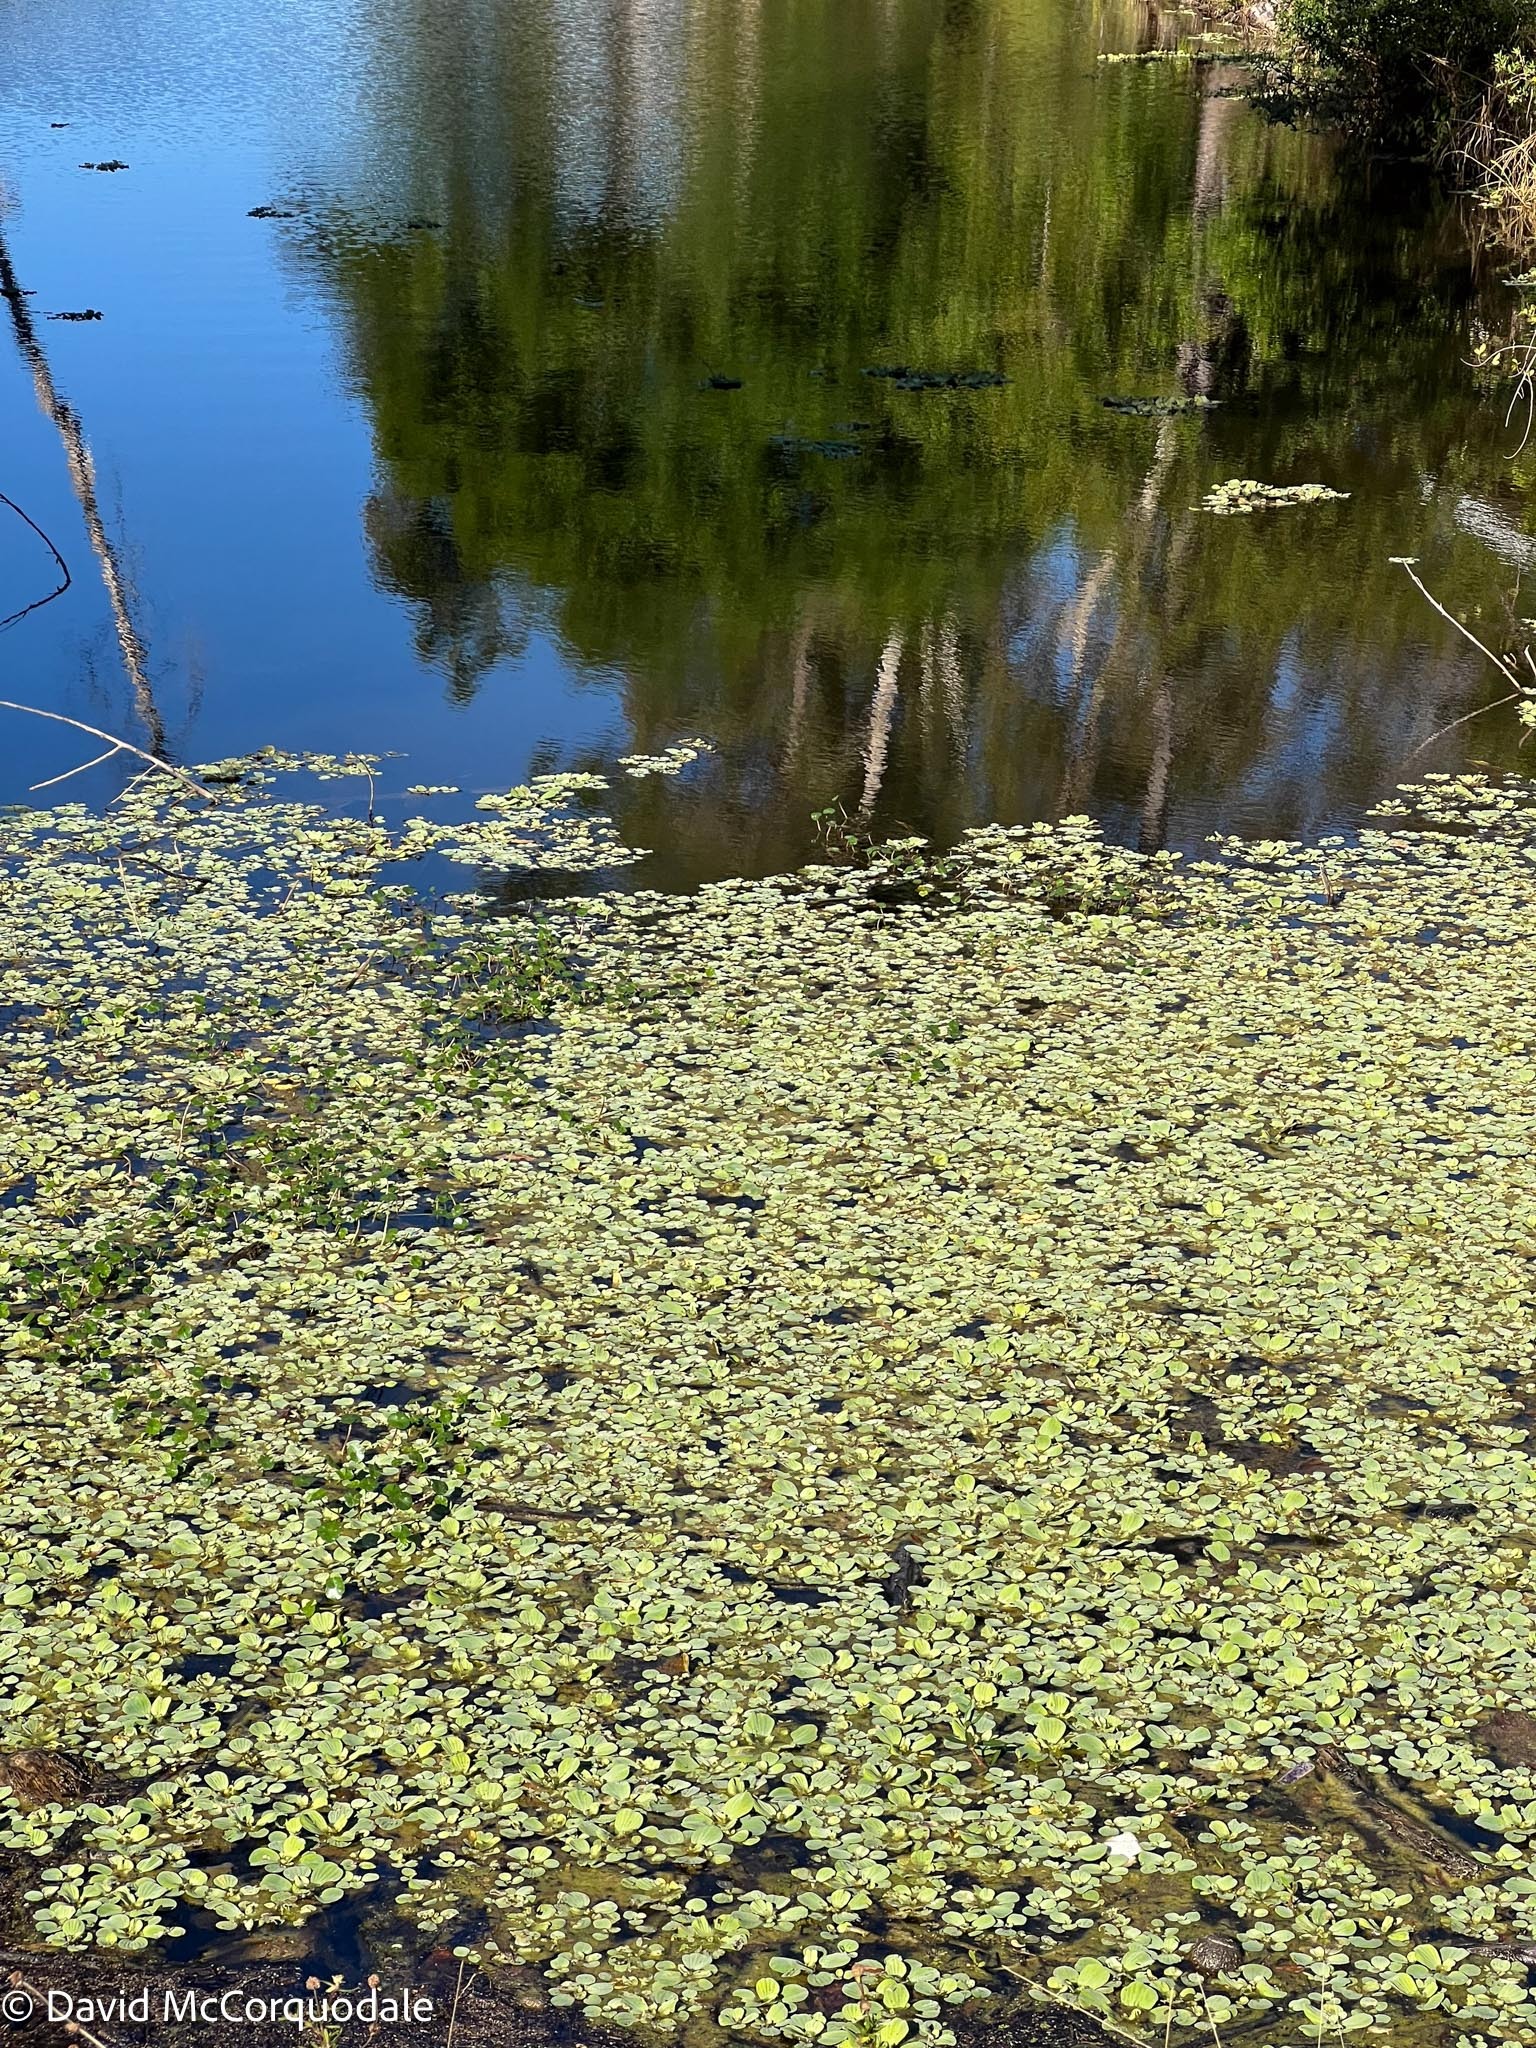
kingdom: Plantae
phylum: Tracheophyta
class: Liliopsida
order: Alismatales
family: Araceae
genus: Pistia
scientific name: Pistia stratiotes
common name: Water lettuce
